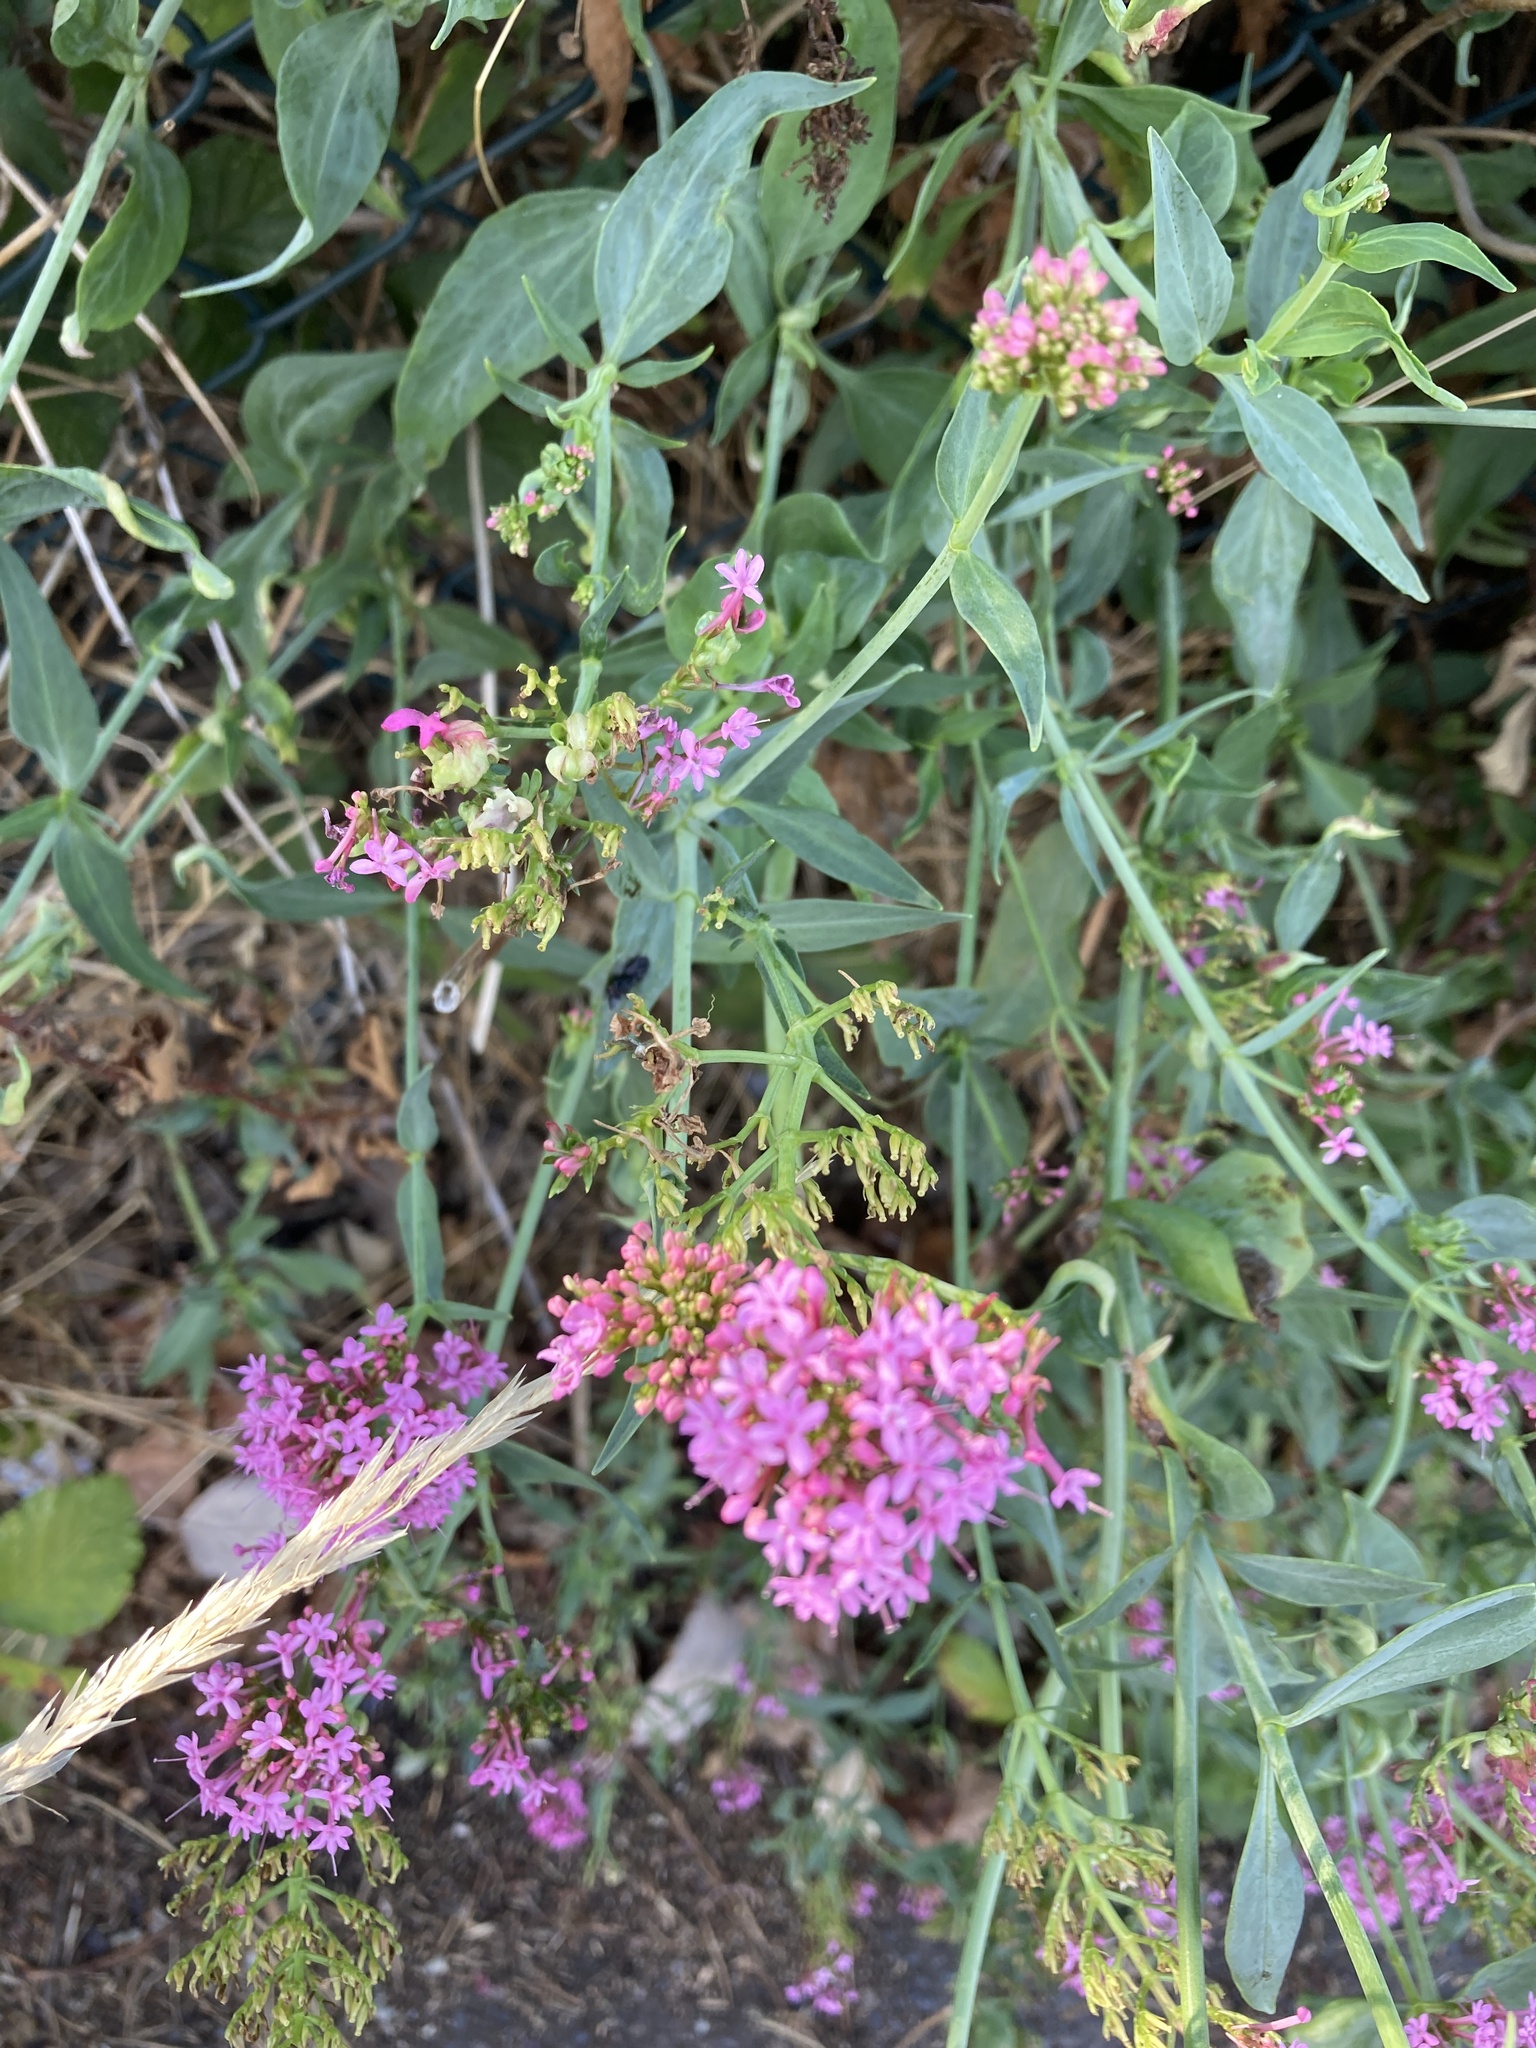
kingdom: Plantae
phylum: Tracheophyta
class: Magnoliopsida
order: Dipsacales
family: Caprifoliaceae
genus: Centranthus
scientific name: Centranthus ruber
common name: Red valerian
